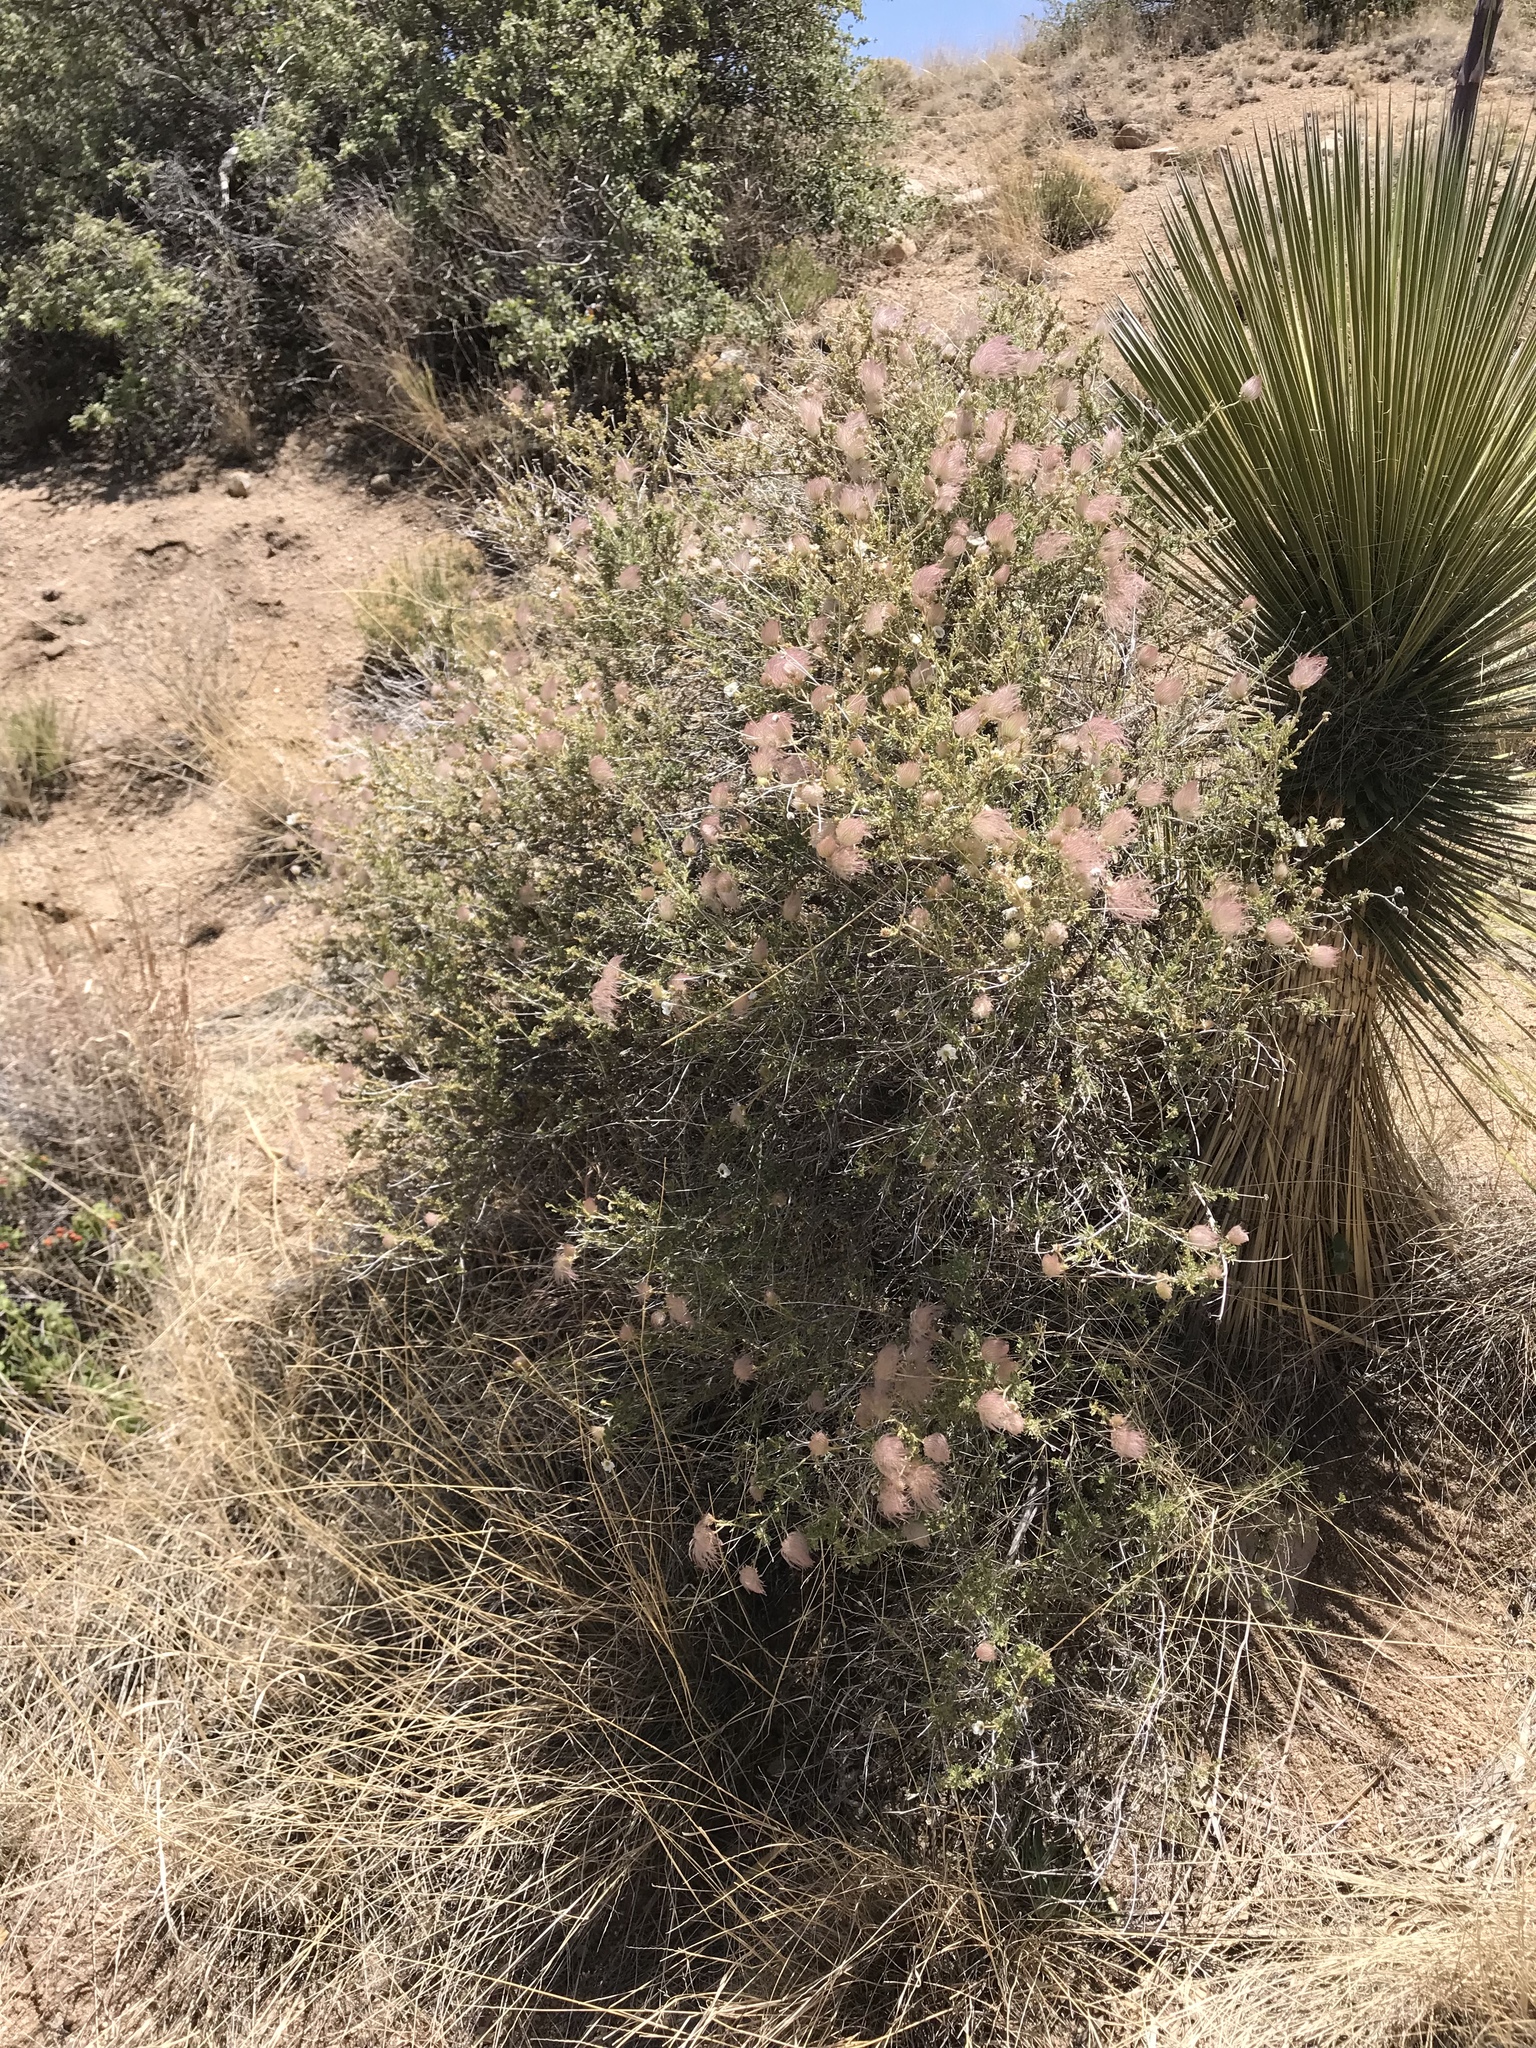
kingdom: Plantae
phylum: Tracheophyta
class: Magnoliopsida
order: Rosales
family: Rosaceae
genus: Fallugia
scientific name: Fallugia paradoxa
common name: Apache-plume
